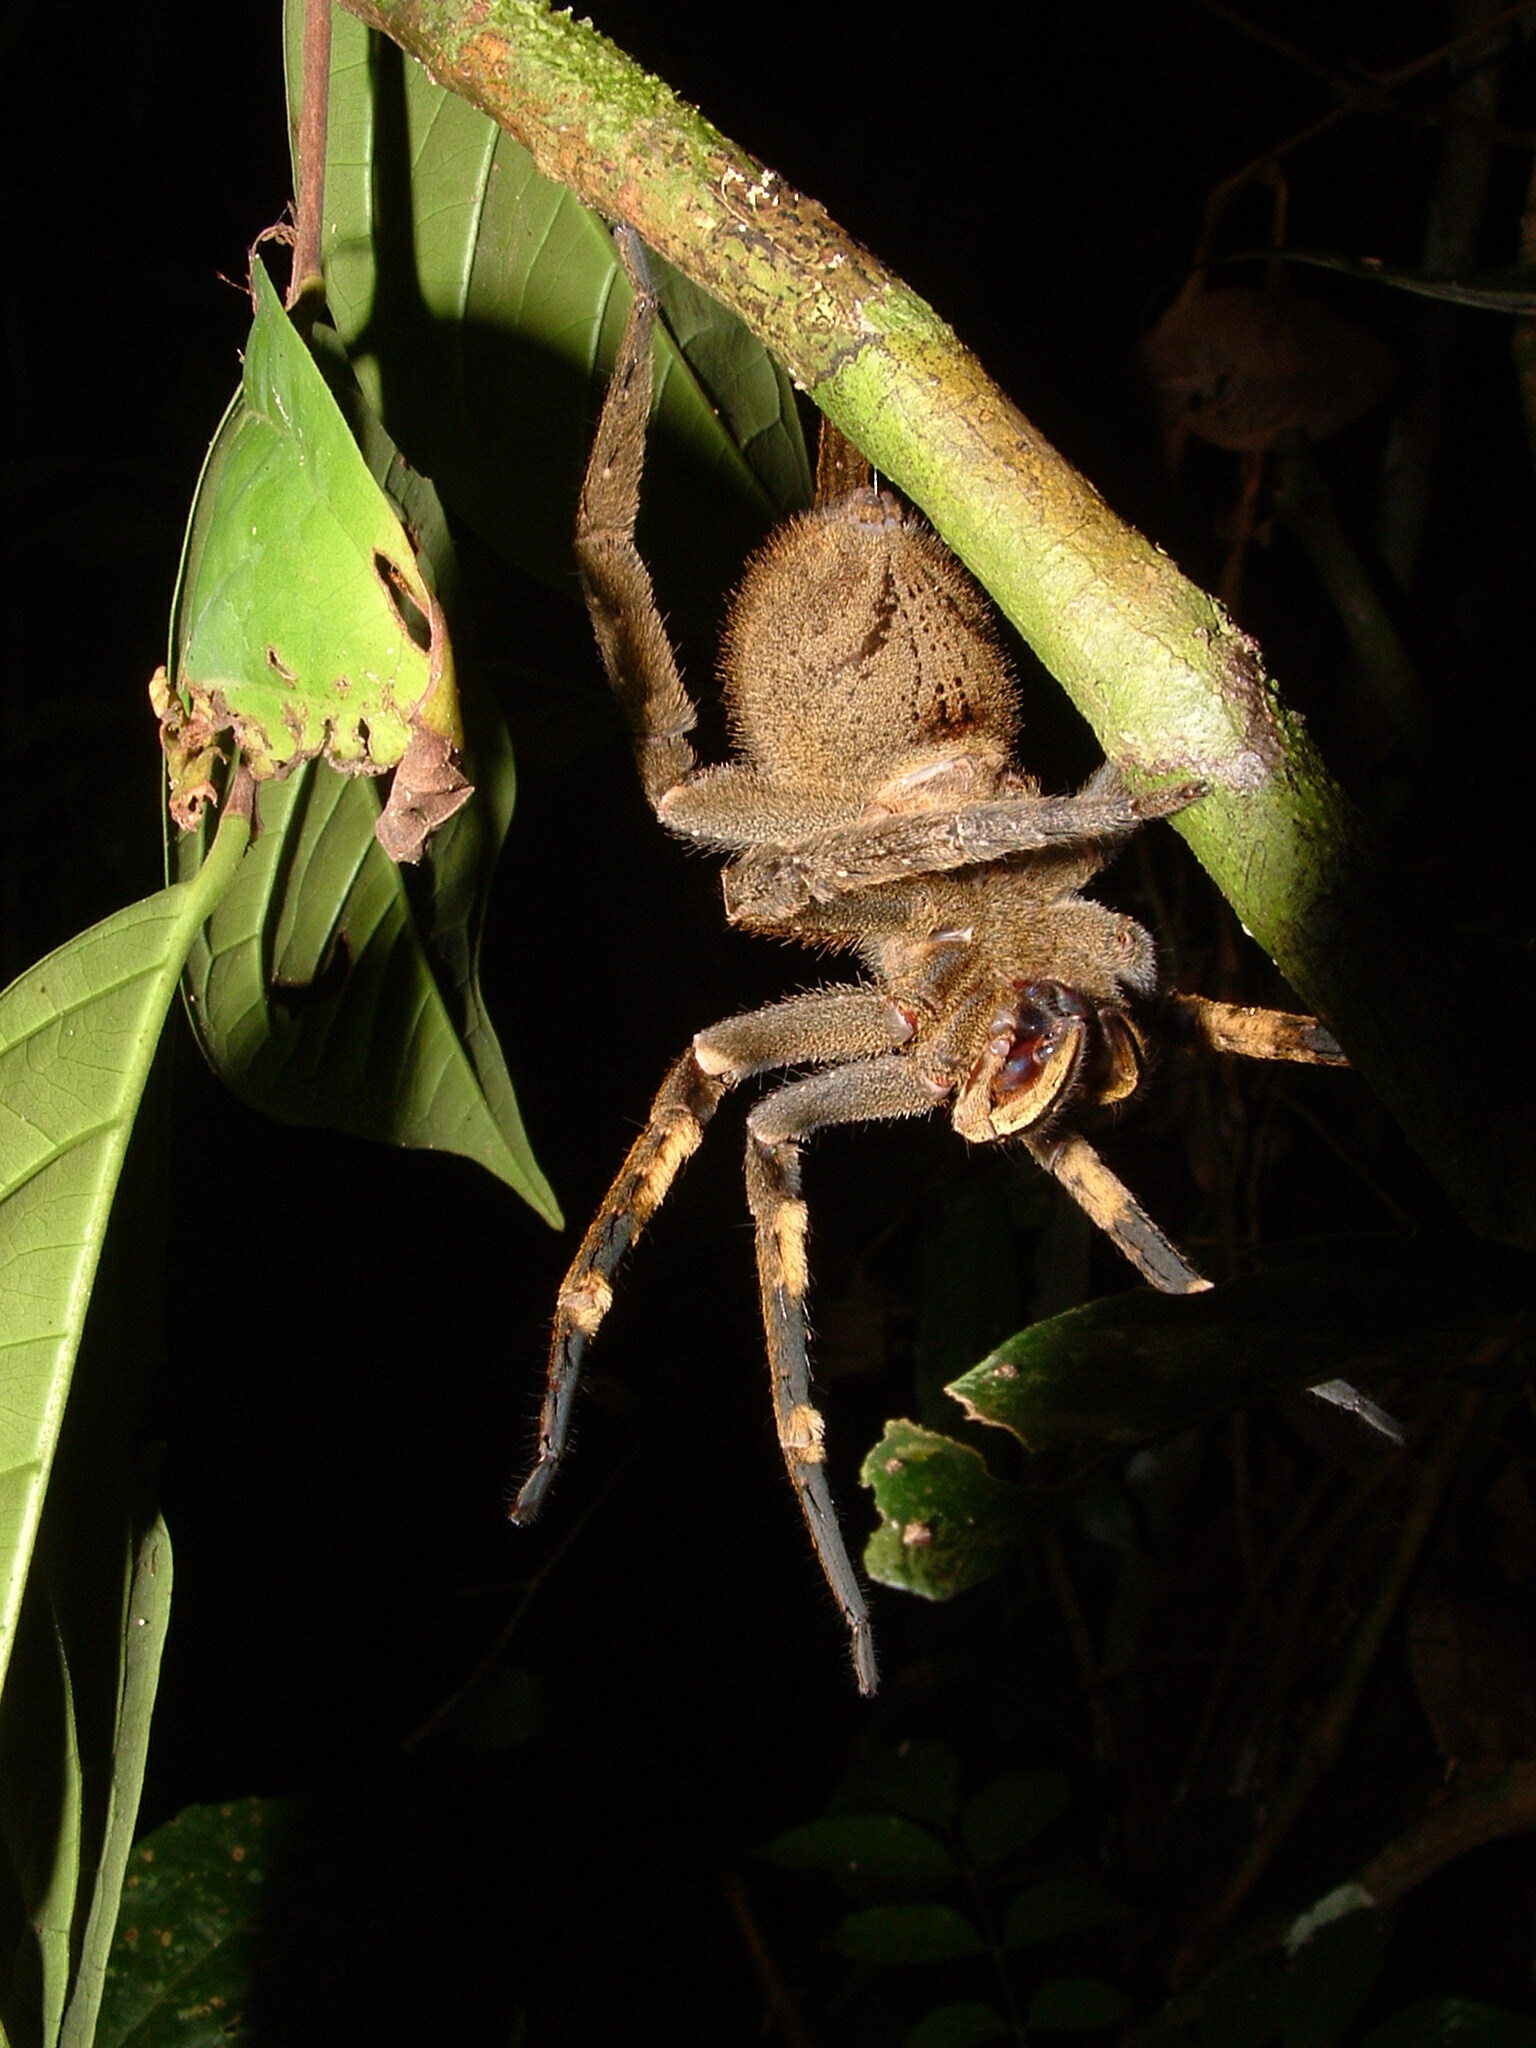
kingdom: Animalia
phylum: Arthropoda
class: Arachnida
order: Araneae
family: Ctenidae
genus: Phoneutria
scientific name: Phoneutria fera
